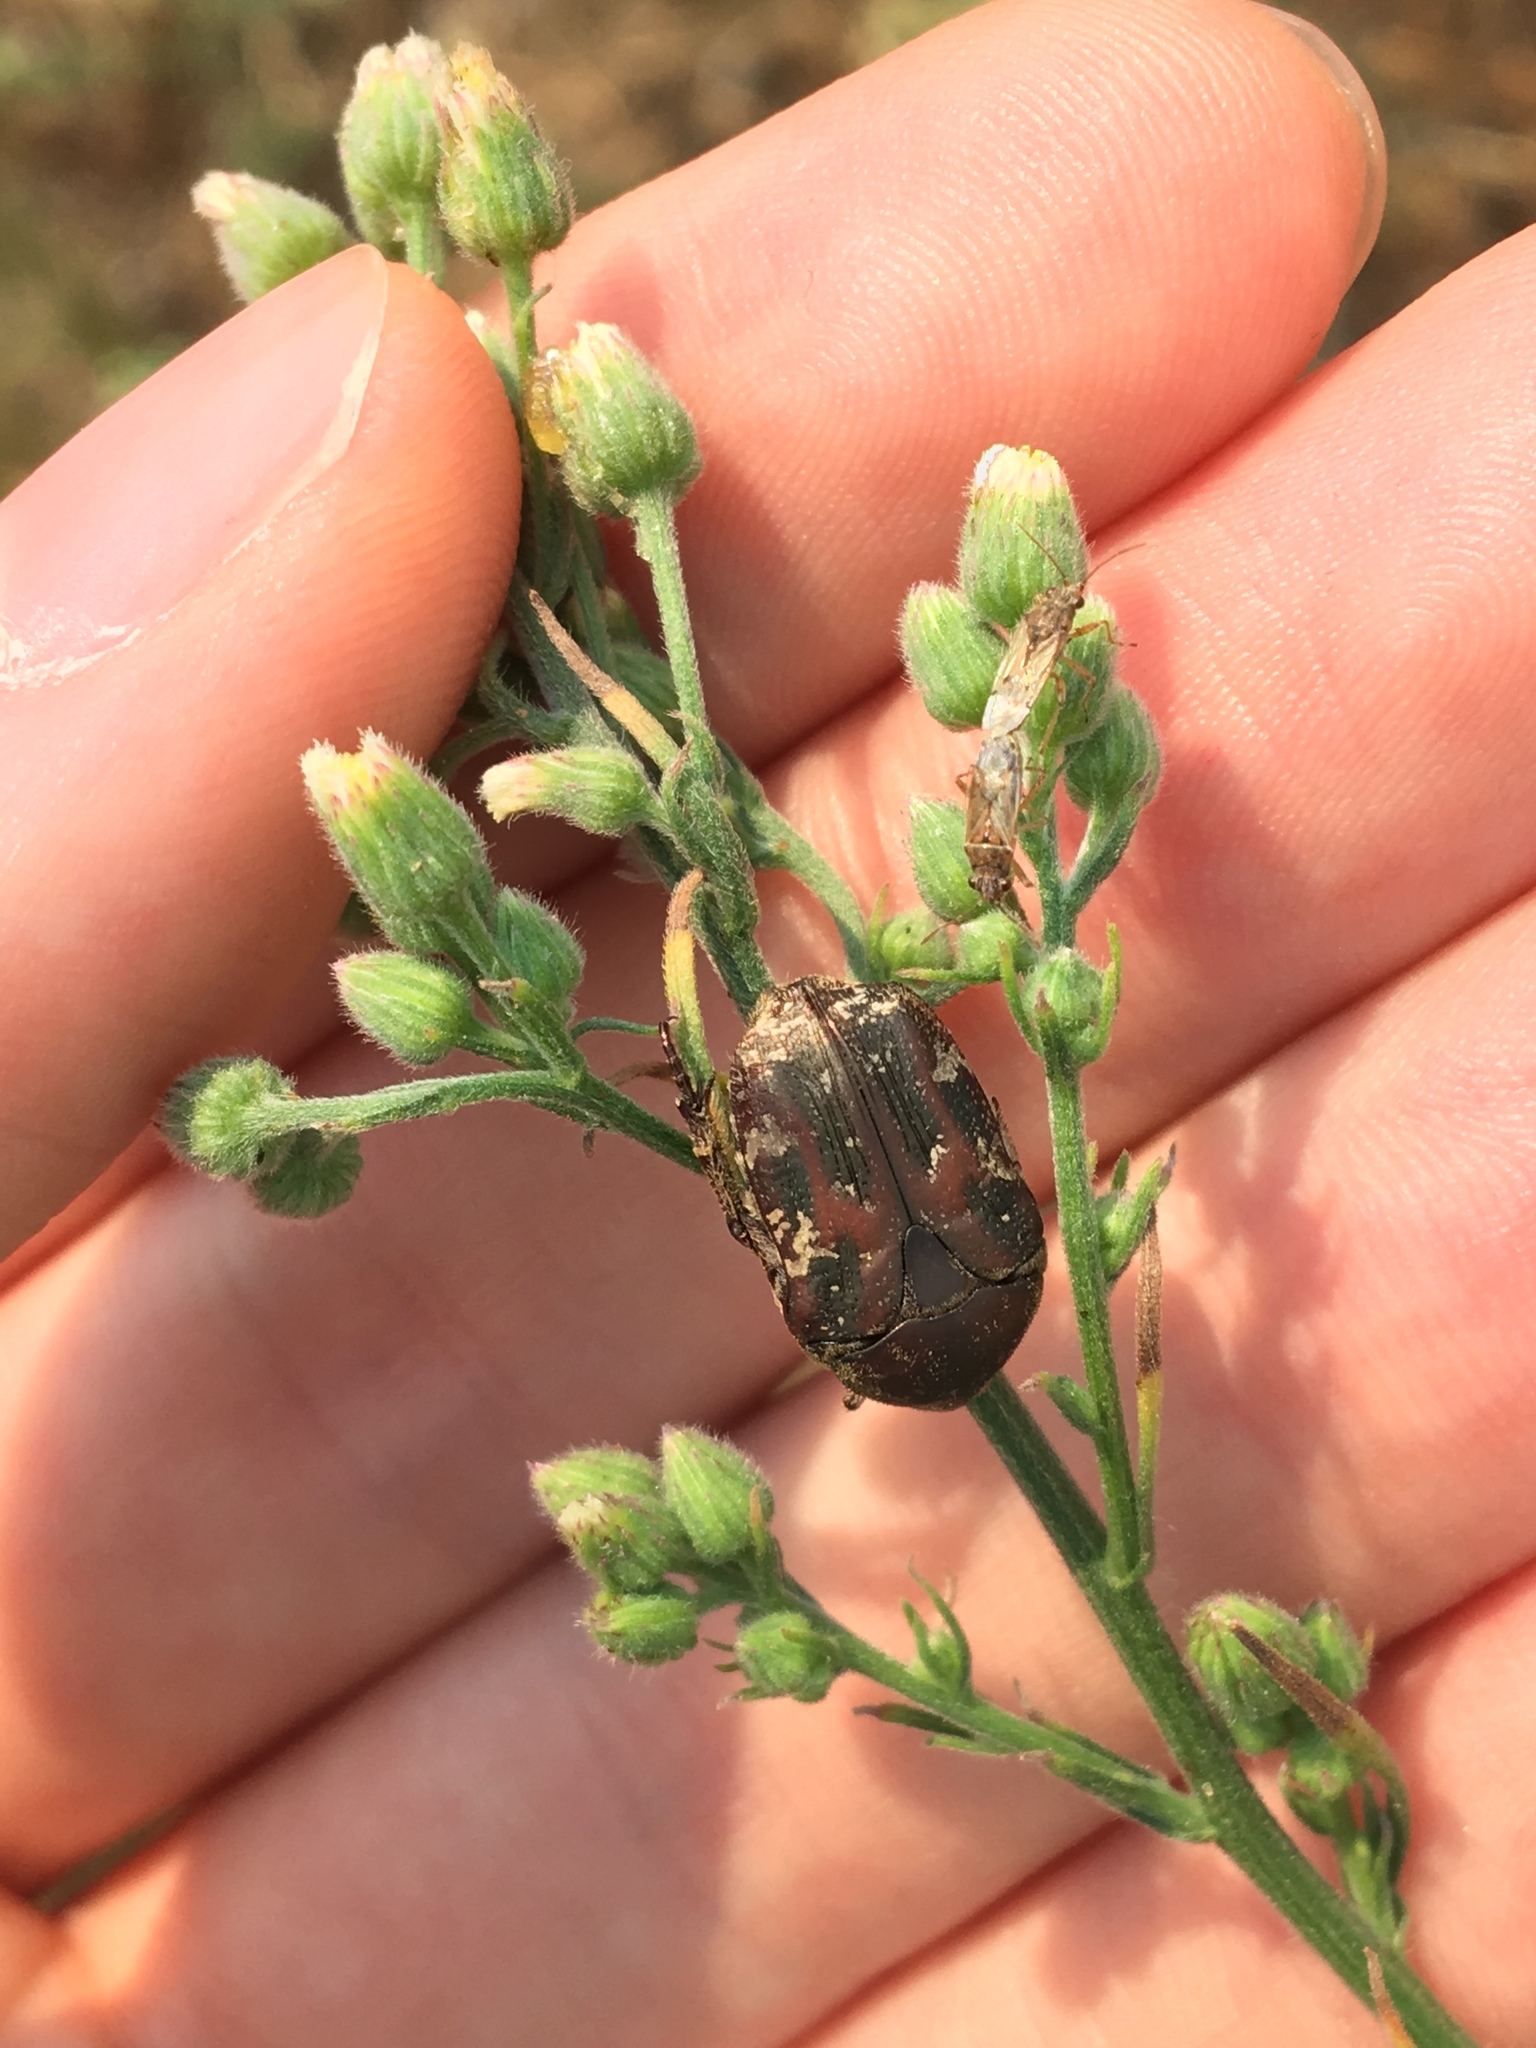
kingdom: Animalia
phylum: Arthropoda
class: Insecta
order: Coleoptera
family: Scarabaeidae
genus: Protaetia
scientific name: Protaetia fusca
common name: Mango flower beetle
